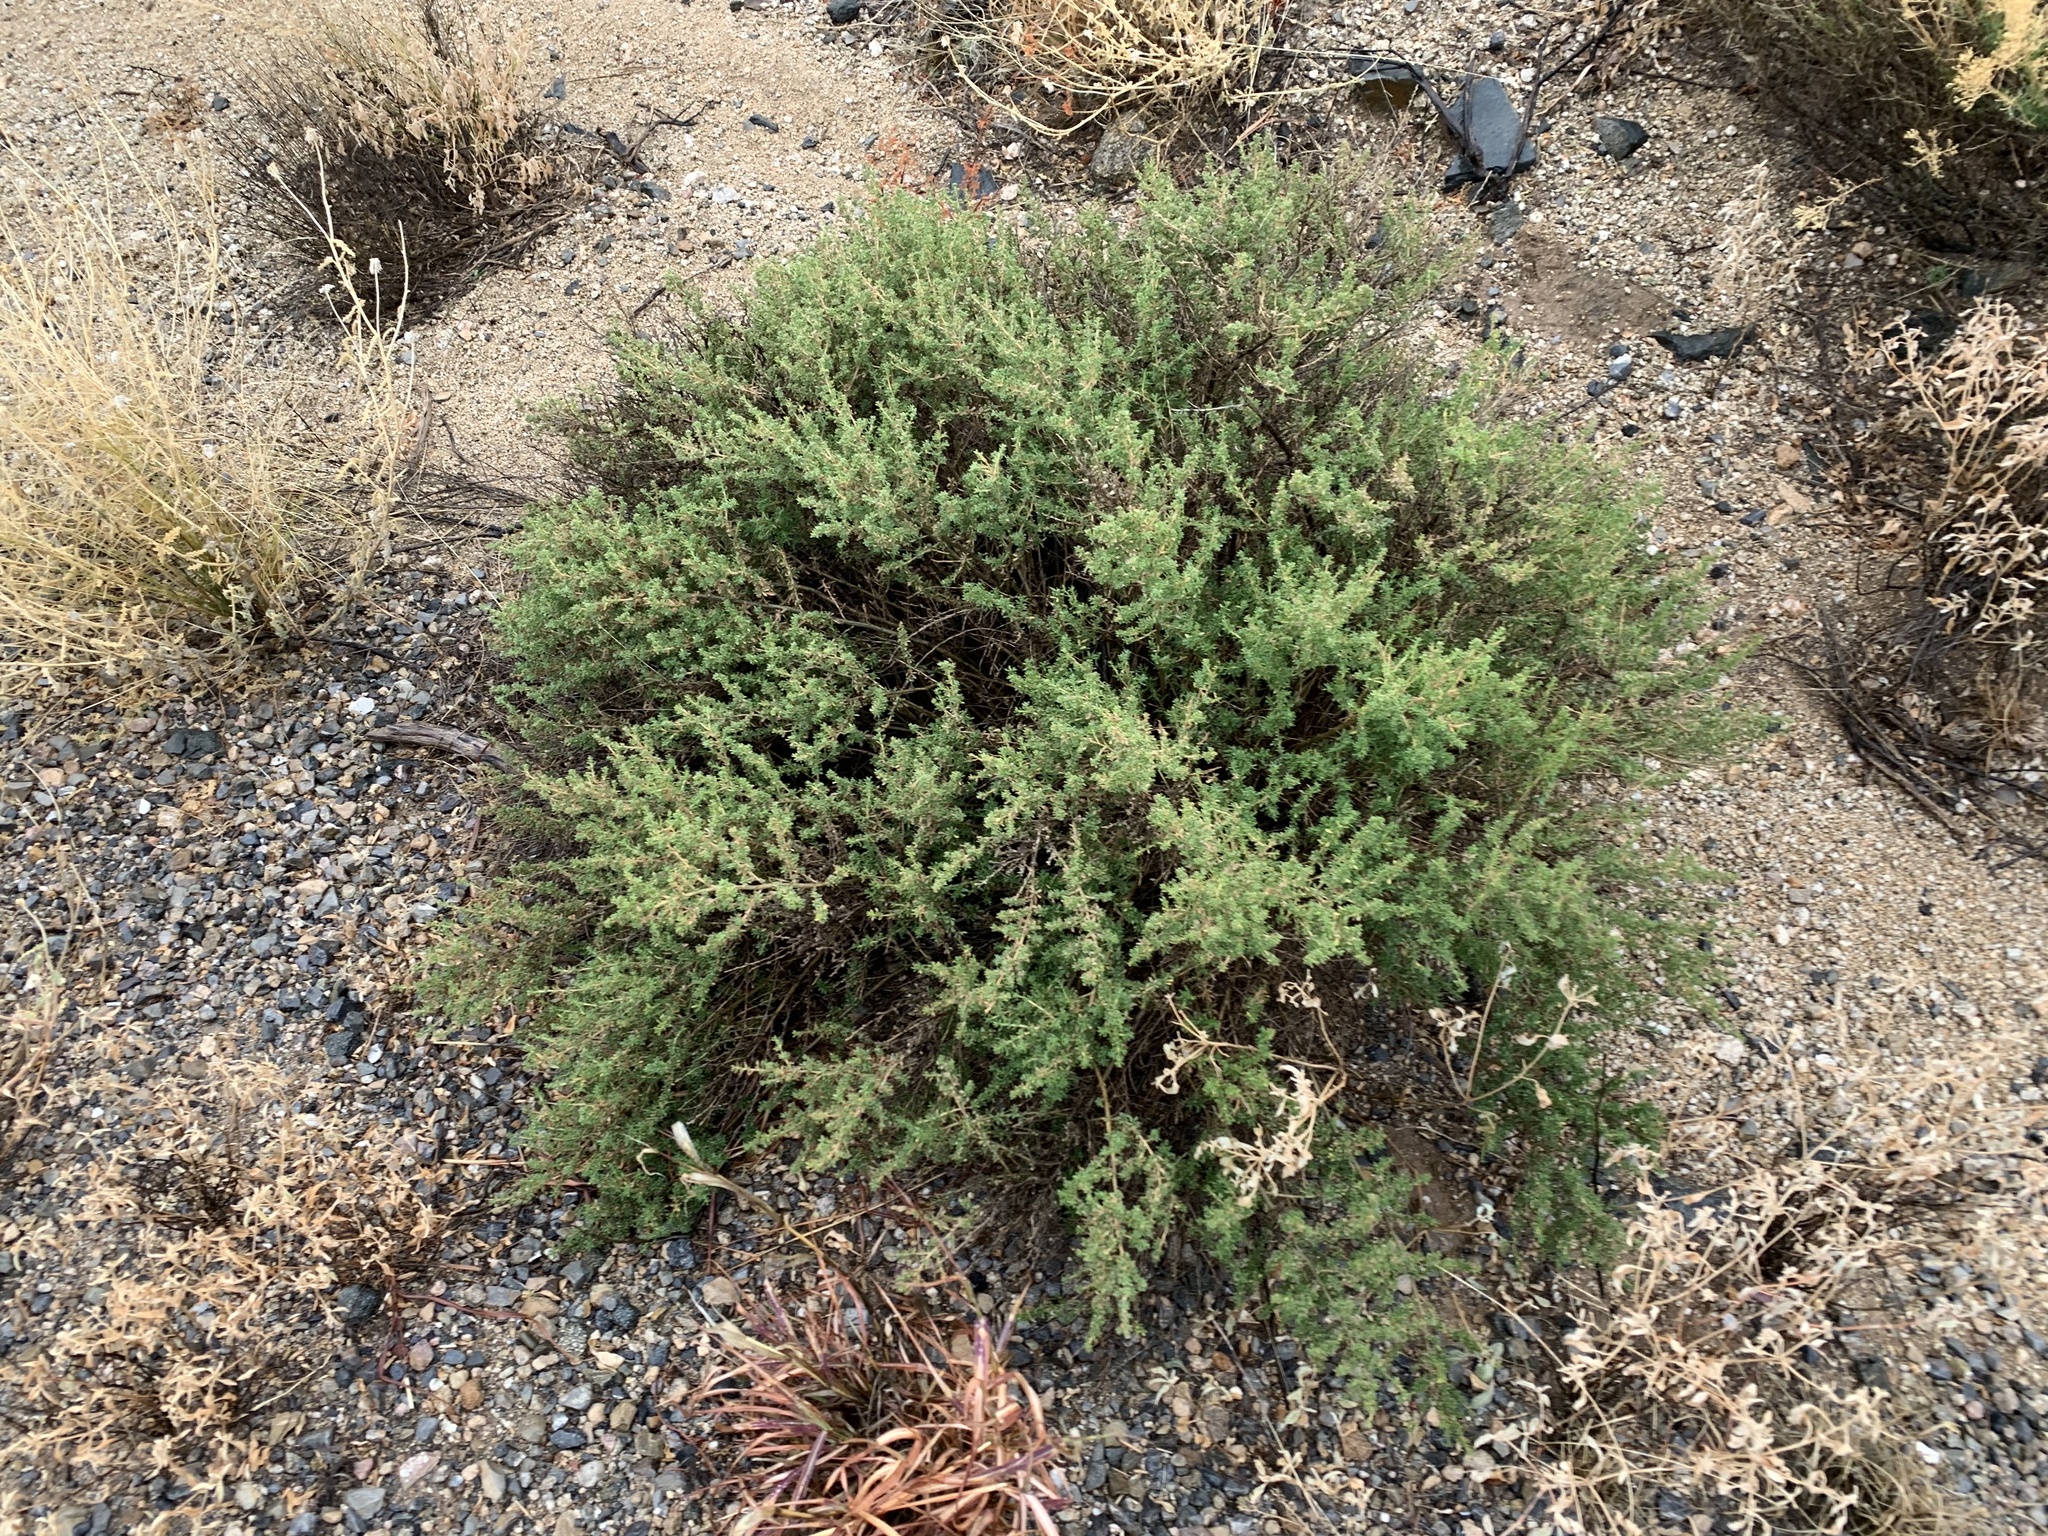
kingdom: Plantae
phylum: Tracheophyta
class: Magnoliopsida
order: Asterales
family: Asteraceae
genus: Baccharis
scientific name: Baccharis pteronioides
